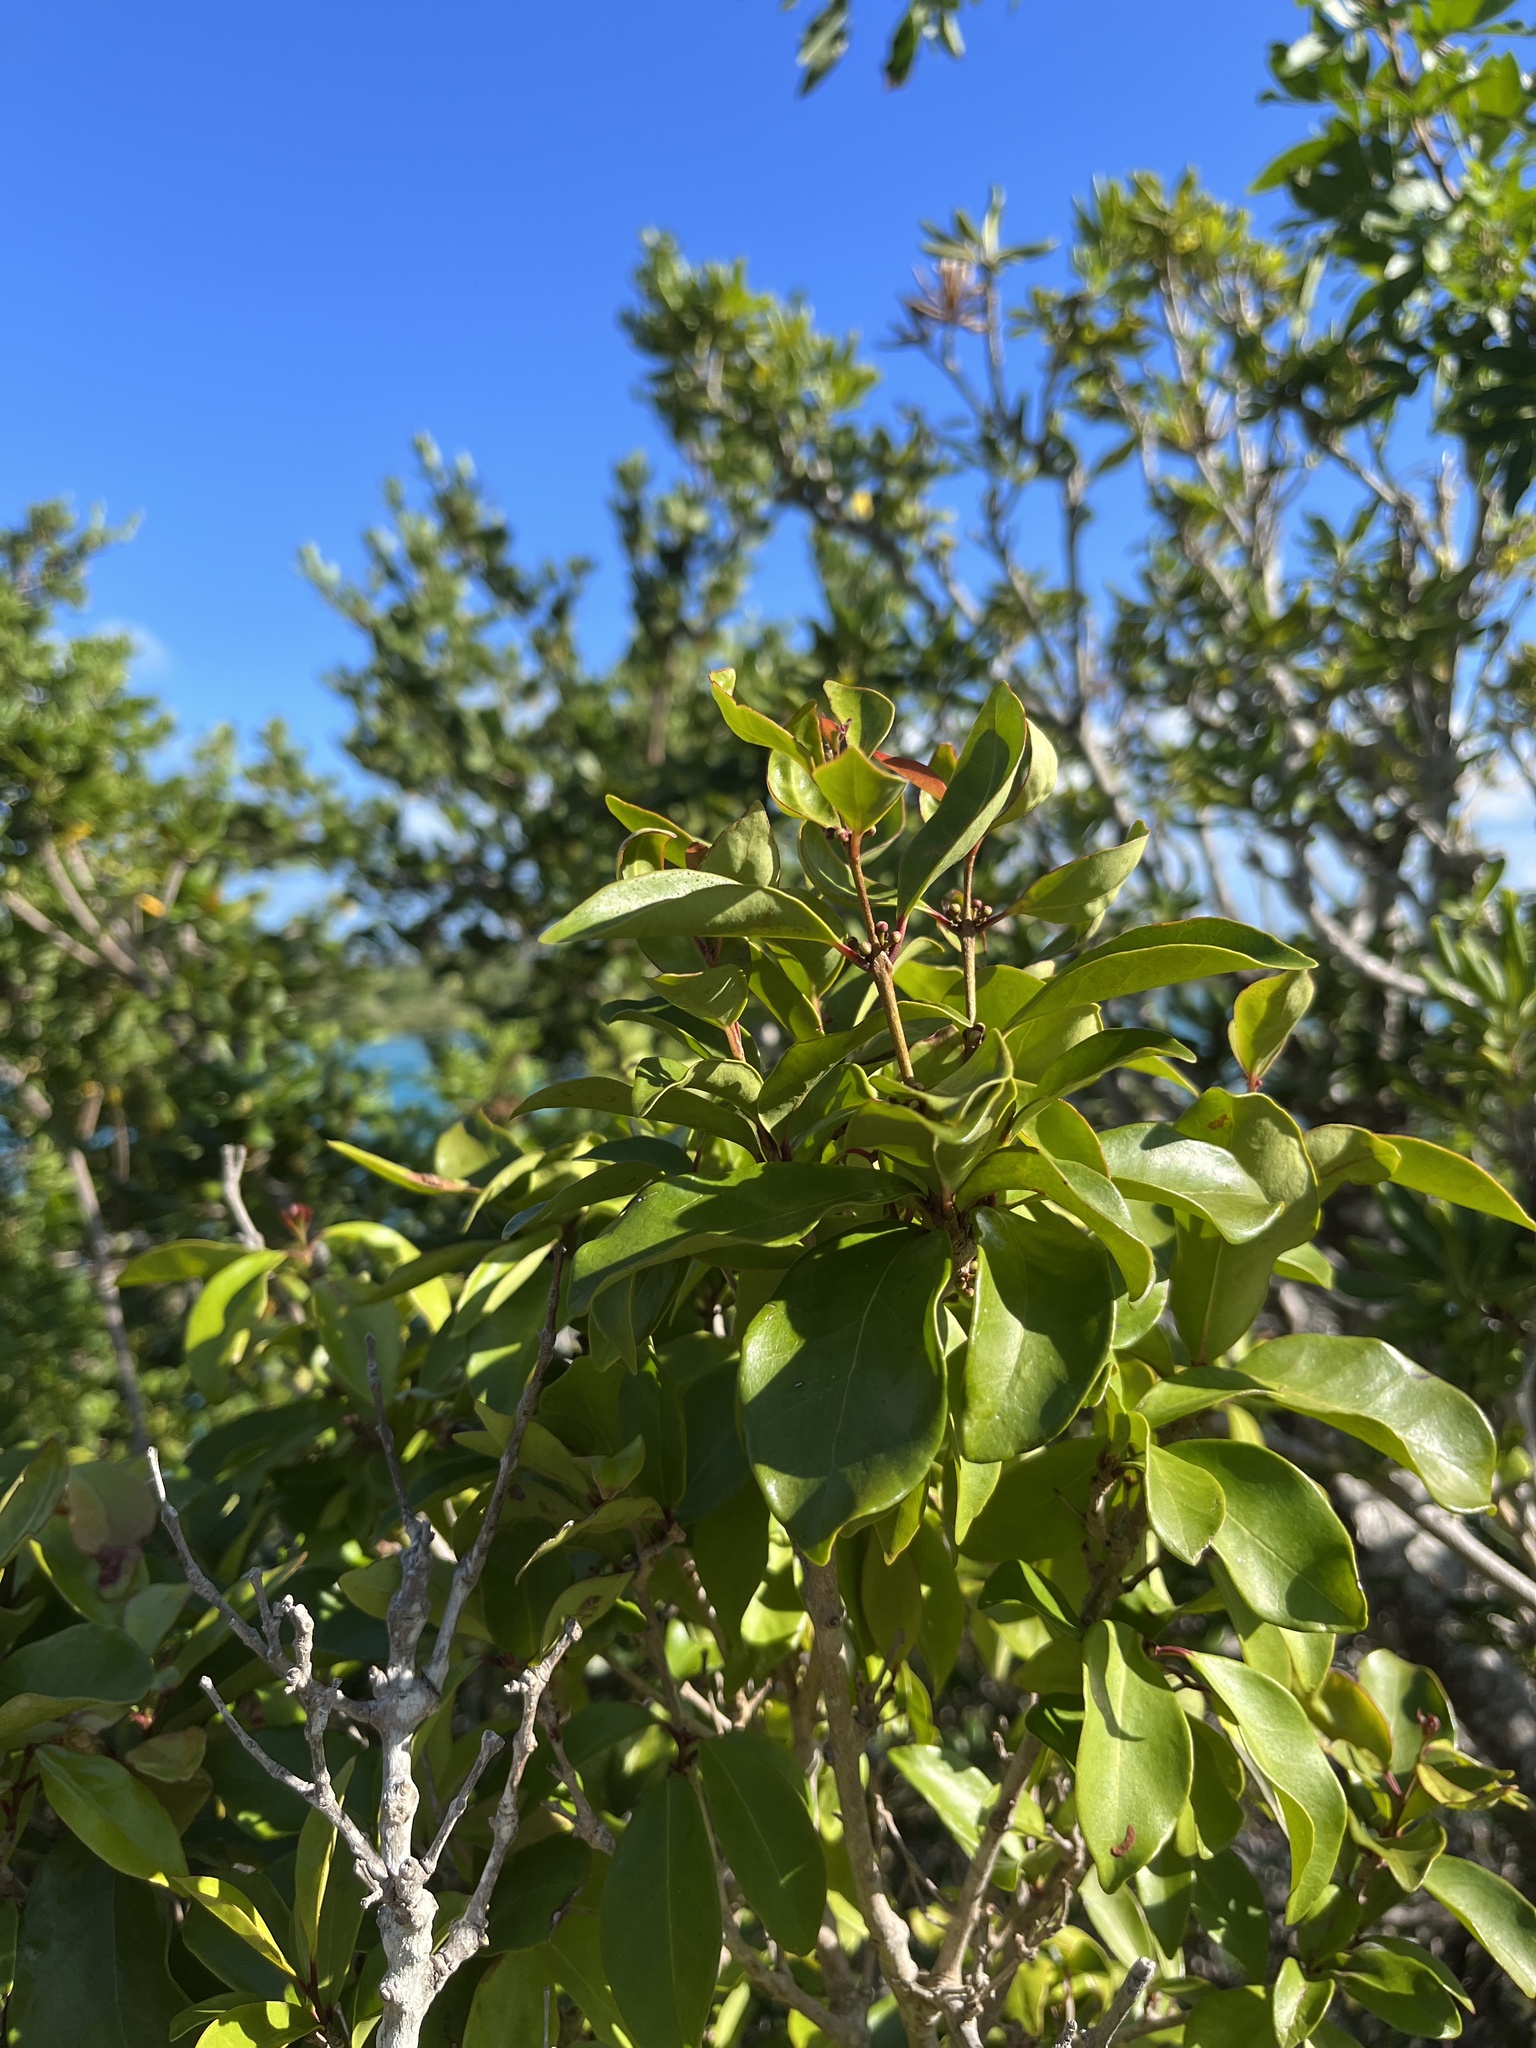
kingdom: Plantae
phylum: Tracheophyta
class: Magnoliopsida
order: Myrtales
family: Myrtaceae
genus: Eugenia
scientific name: Eugenia axillaris
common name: Choaky berry
